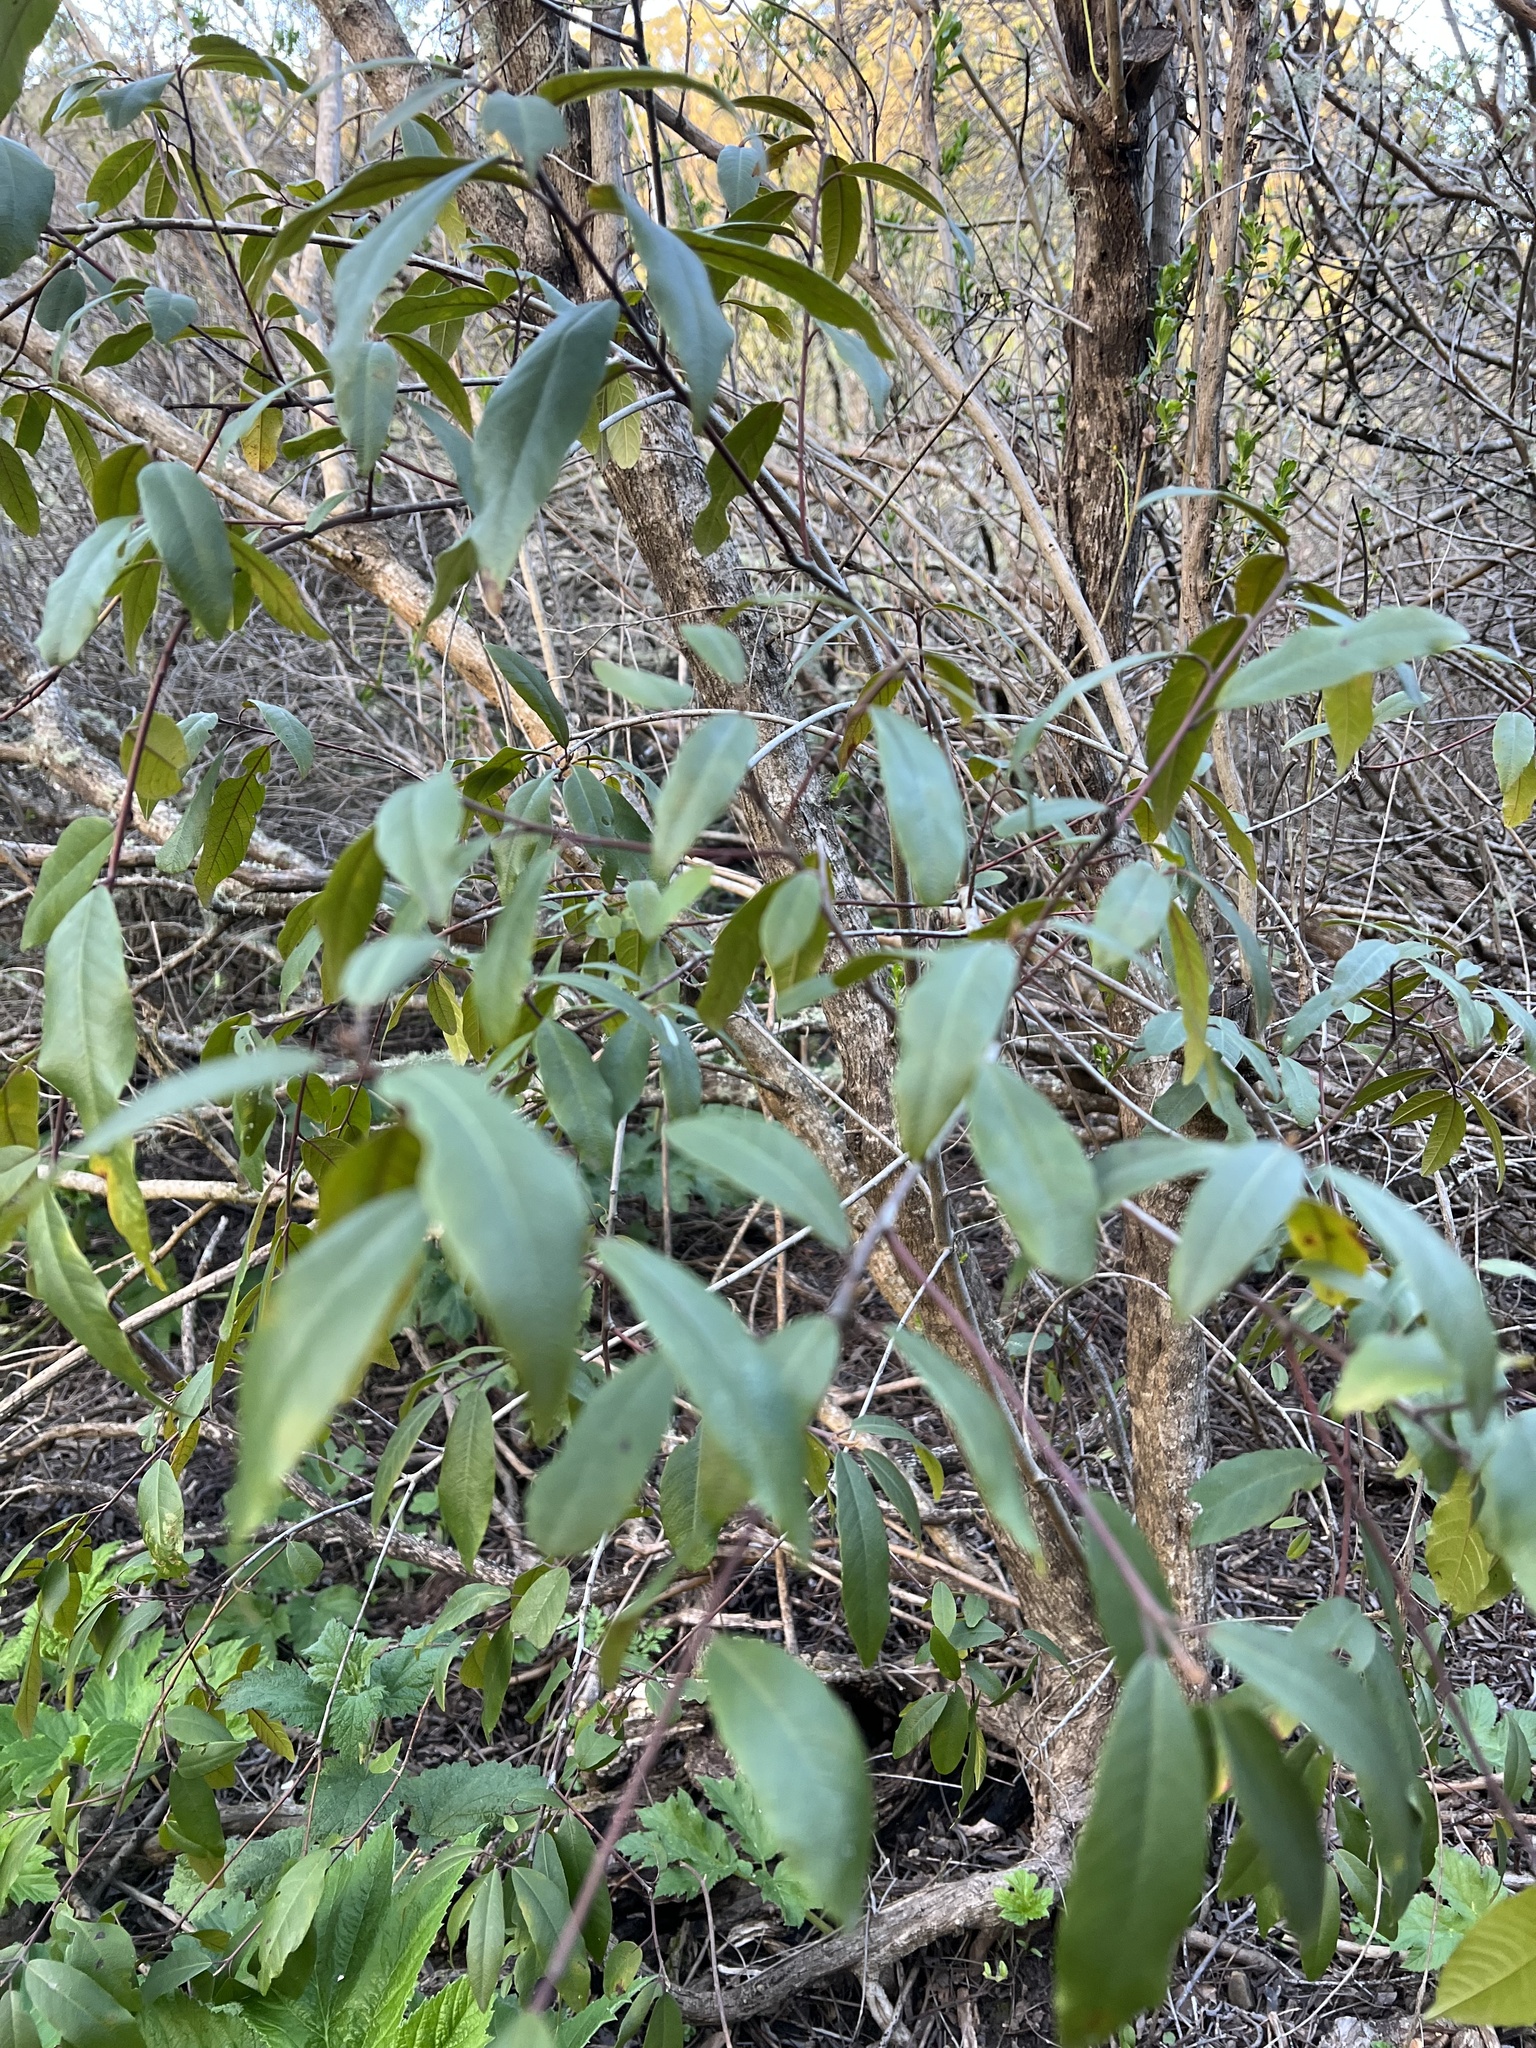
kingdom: Plantae
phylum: Tracheophyta
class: Magnoliopsida
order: Rosales
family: Rhamnaceae
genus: Frangula
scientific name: Frangula californica
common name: California buckthorn
